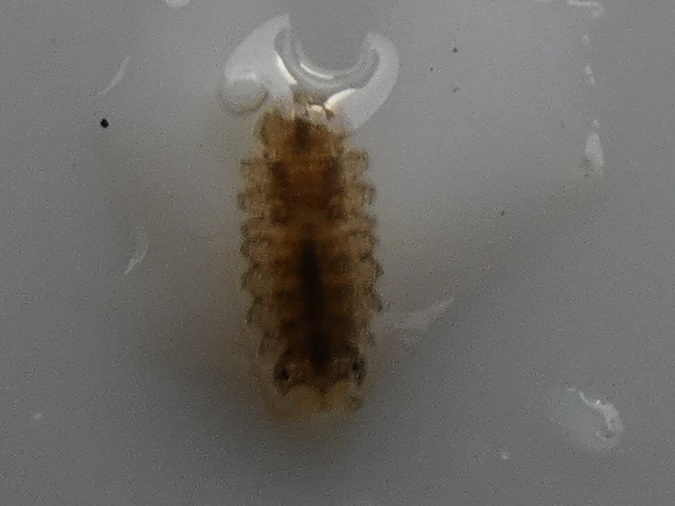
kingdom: Animalia
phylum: Arthropoda
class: Malacostraca
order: Isopoda
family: Janiridae
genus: Jaera
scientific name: Jaera
